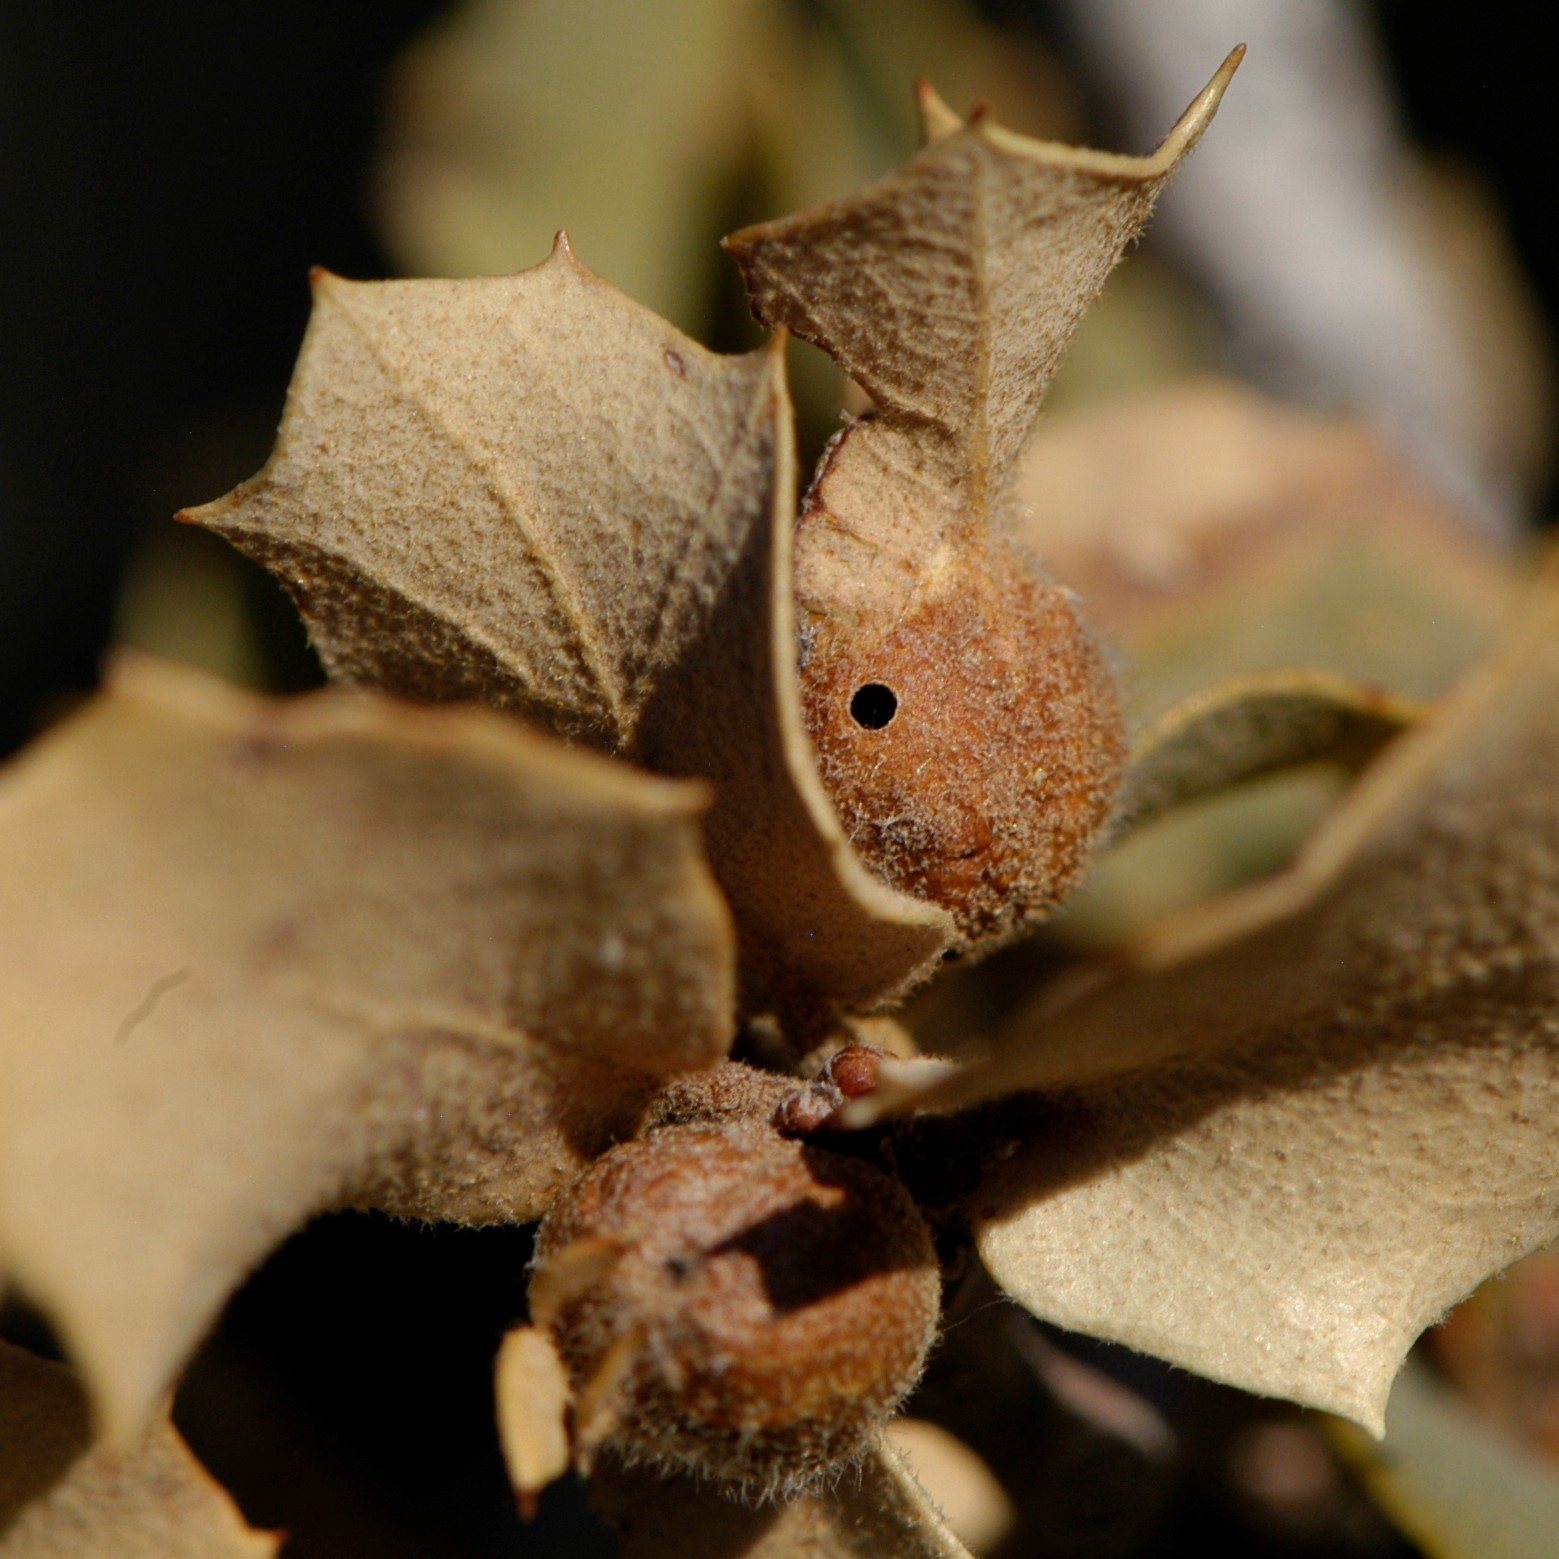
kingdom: Animalia
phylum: Arthropoda
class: Insecta
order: Hymenoptera
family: Cynipidae
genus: Andricus
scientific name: Andricus
